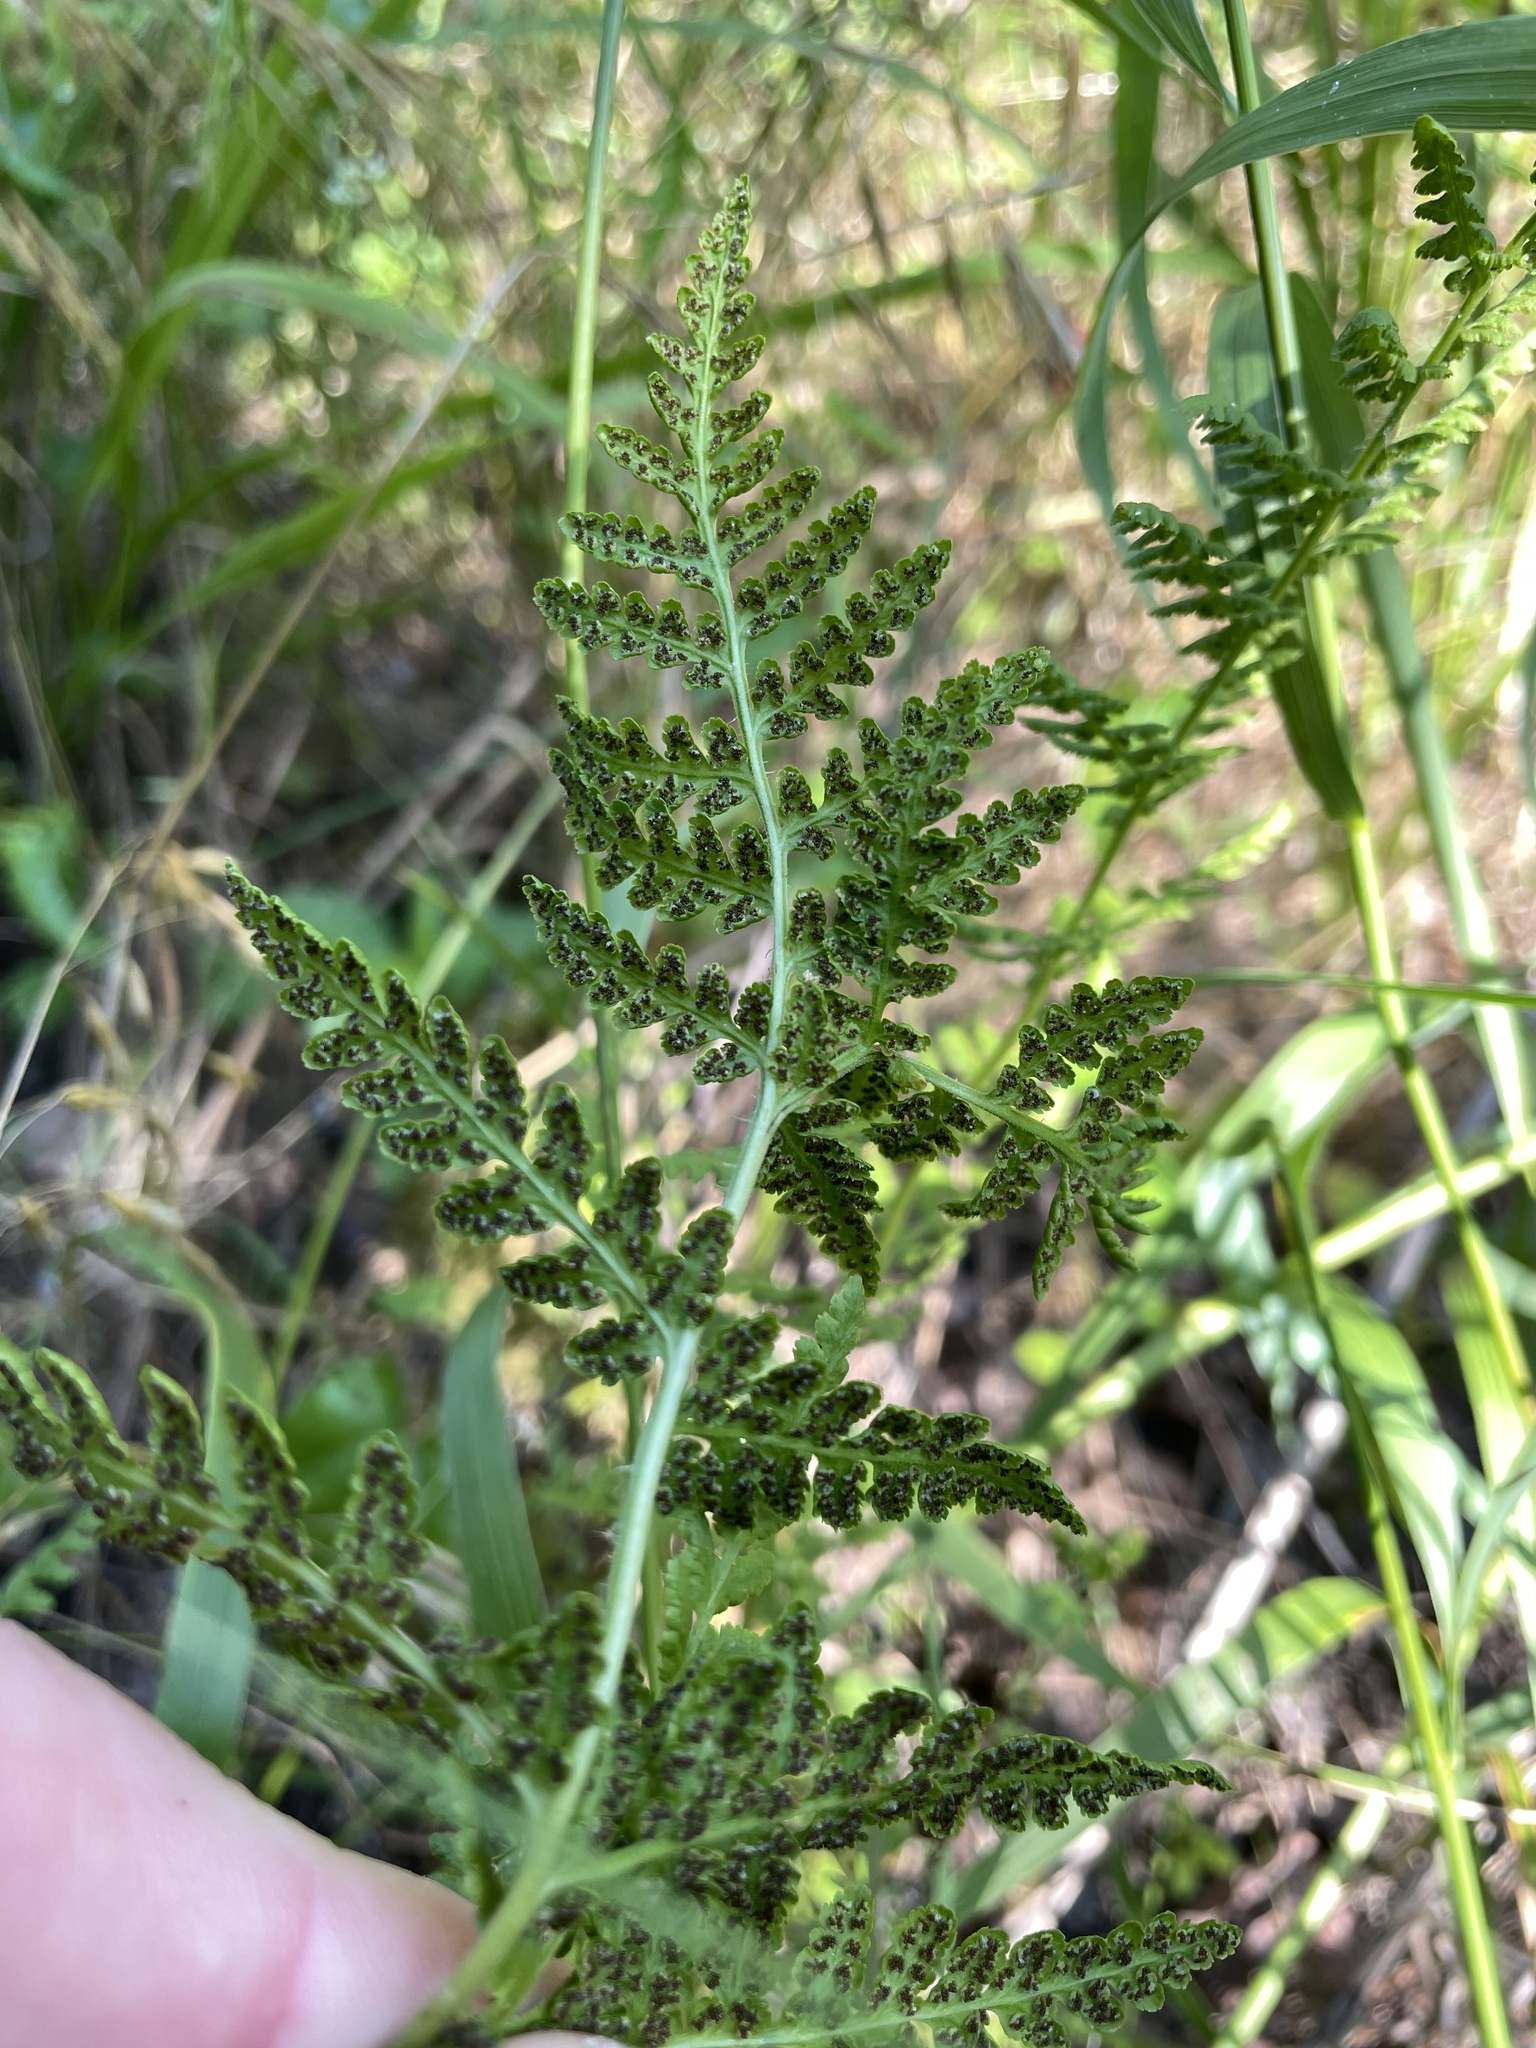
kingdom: Plantae
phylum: Tracheophyta
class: Polypodiopsida
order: Polypodiales
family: Woodsiaceae
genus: Physematium
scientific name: Physematium obtusum
